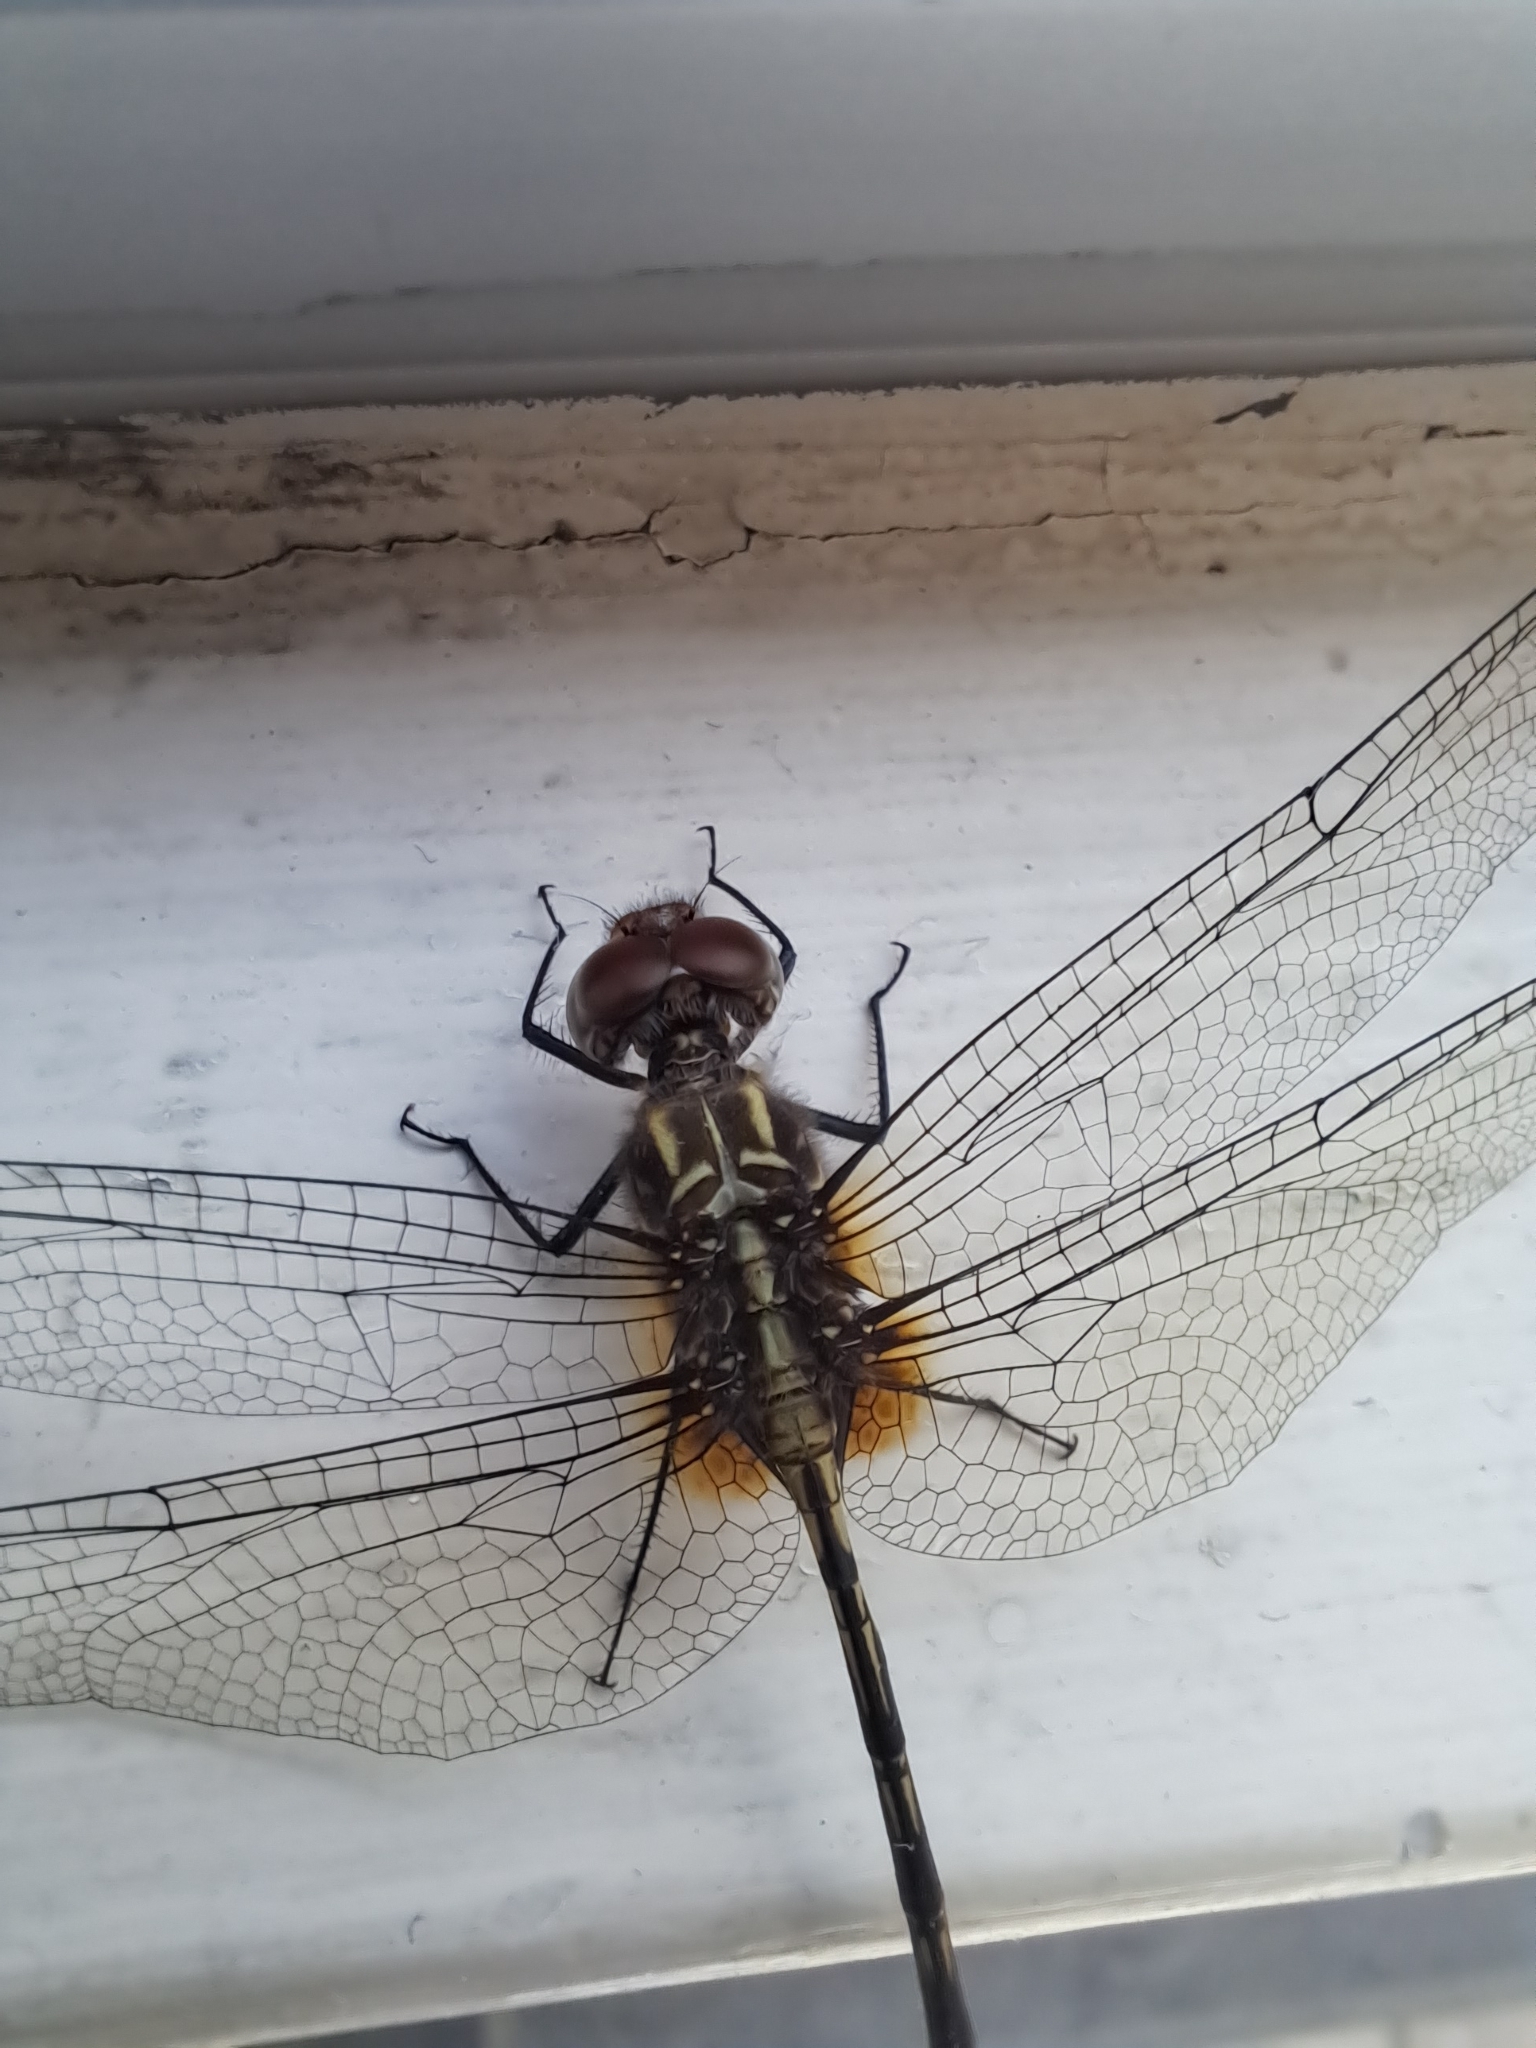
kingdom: Animalia
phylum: Arthropoda
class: Insecta
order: Odonata
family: Libellulidae
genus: Dythemis
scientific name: Dythemis sterilis
